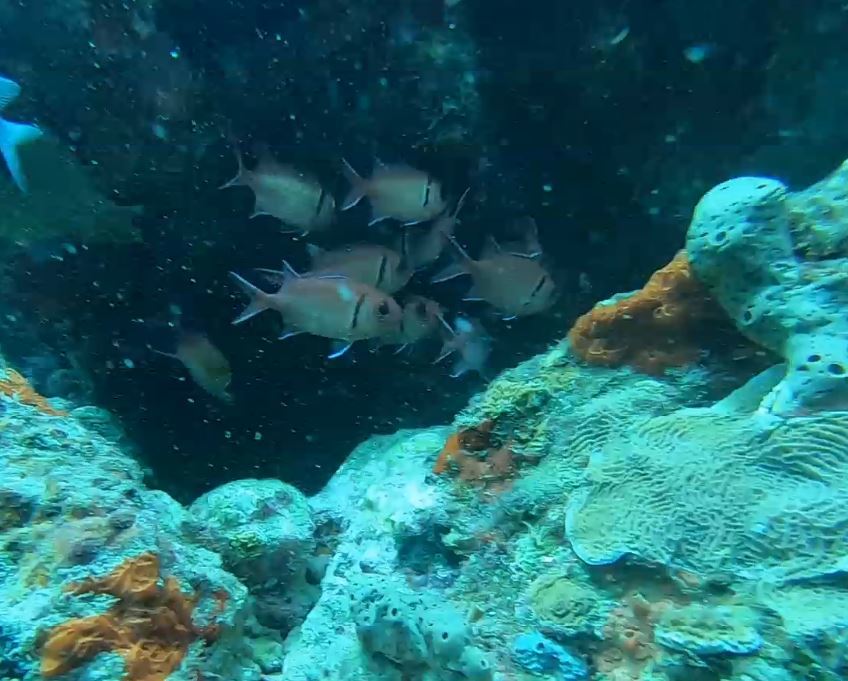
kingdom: Animalia
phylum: Chordata
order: Beryciformes
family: Holocentridae
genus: Myripristis
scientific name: Myripristis jacobus
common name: Blackbar soldierfish
